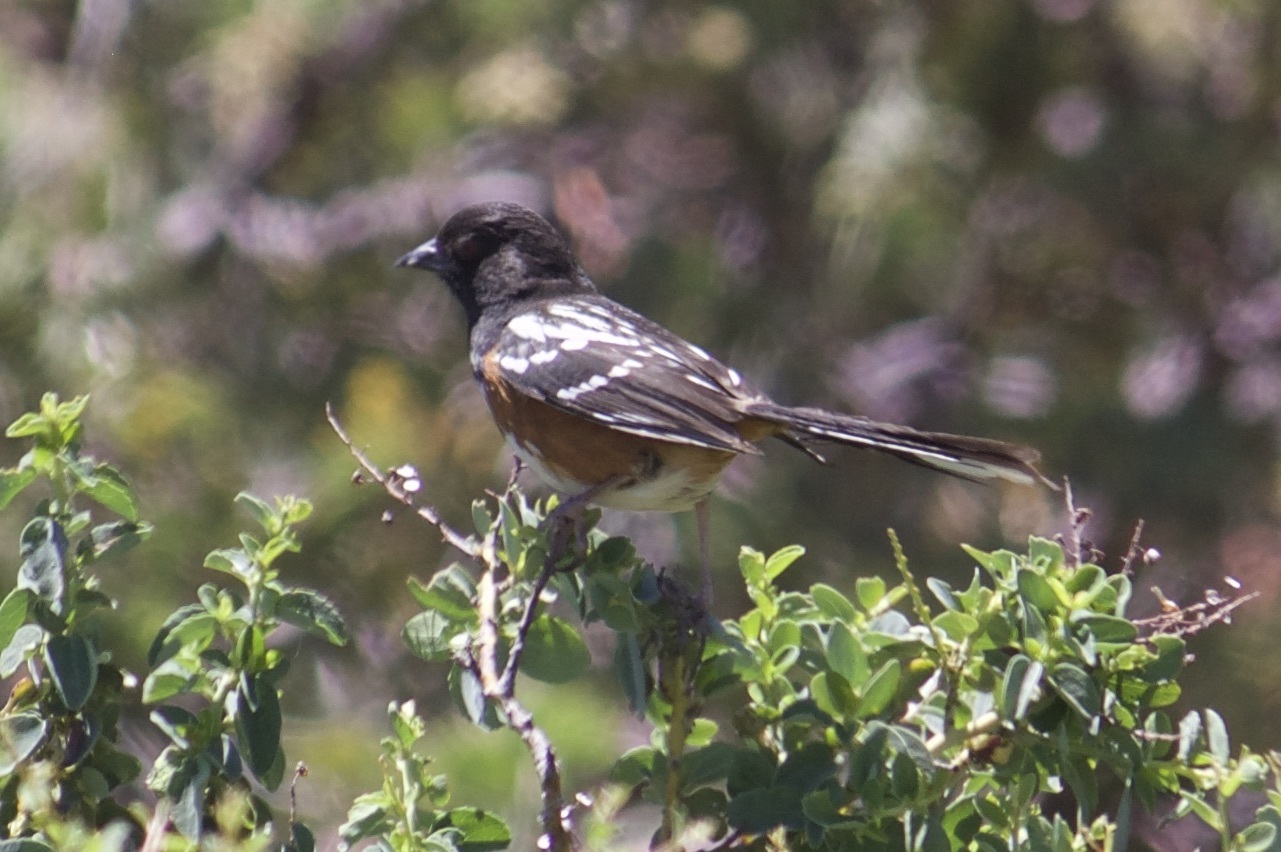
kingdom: Animalia
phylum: Chordata
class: Aves
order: Passeriformes
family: Passerellidae
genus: Pipilo
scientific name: Pipilo maculatus
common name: Spotted towhee
